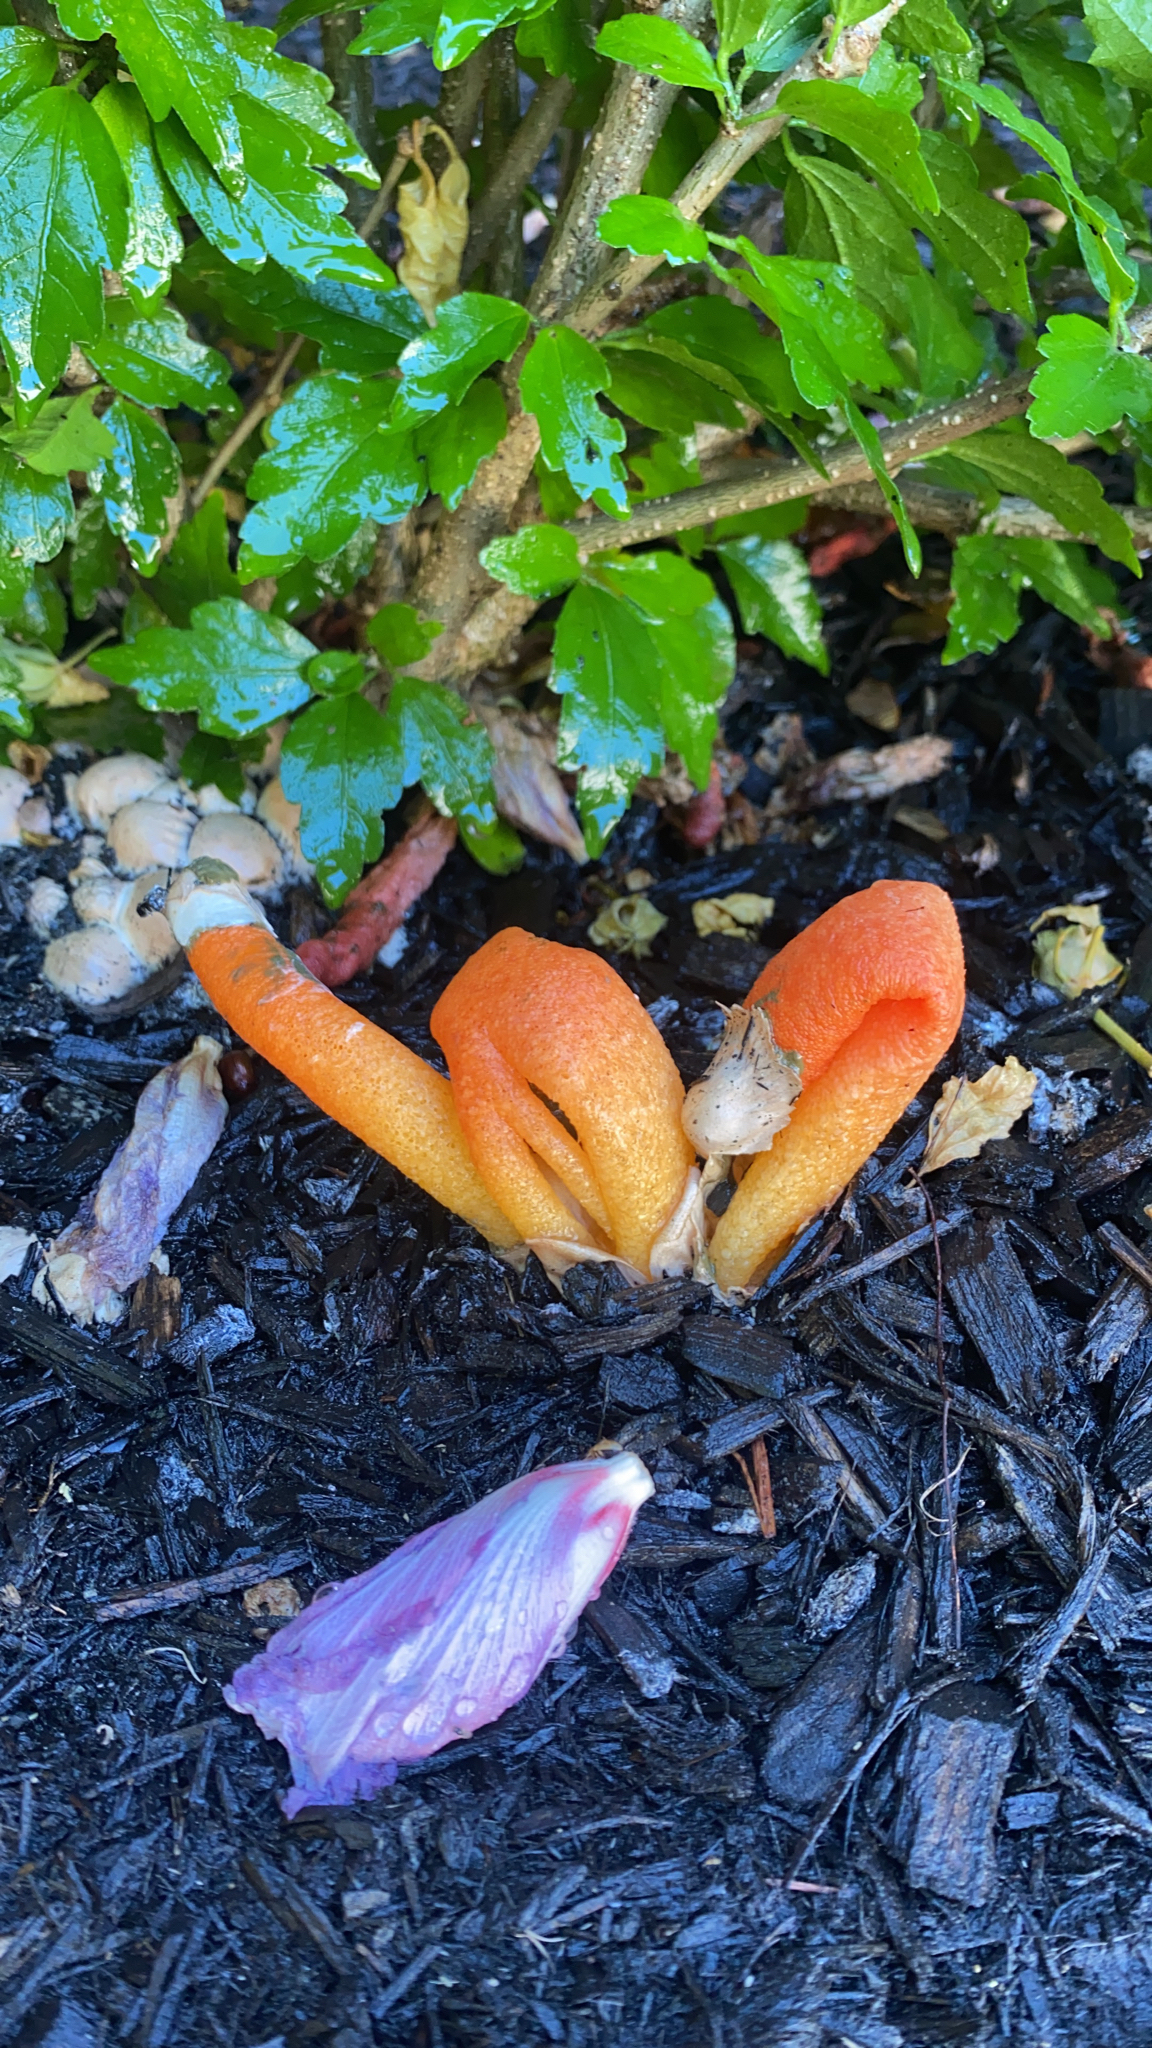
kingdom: Fungi
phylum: Basidiomycota
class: Agaricomycetes
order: Phallales
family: Phallaceae
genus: Mutinus
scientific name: Mutinus elegans
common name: Devil's dipstick
